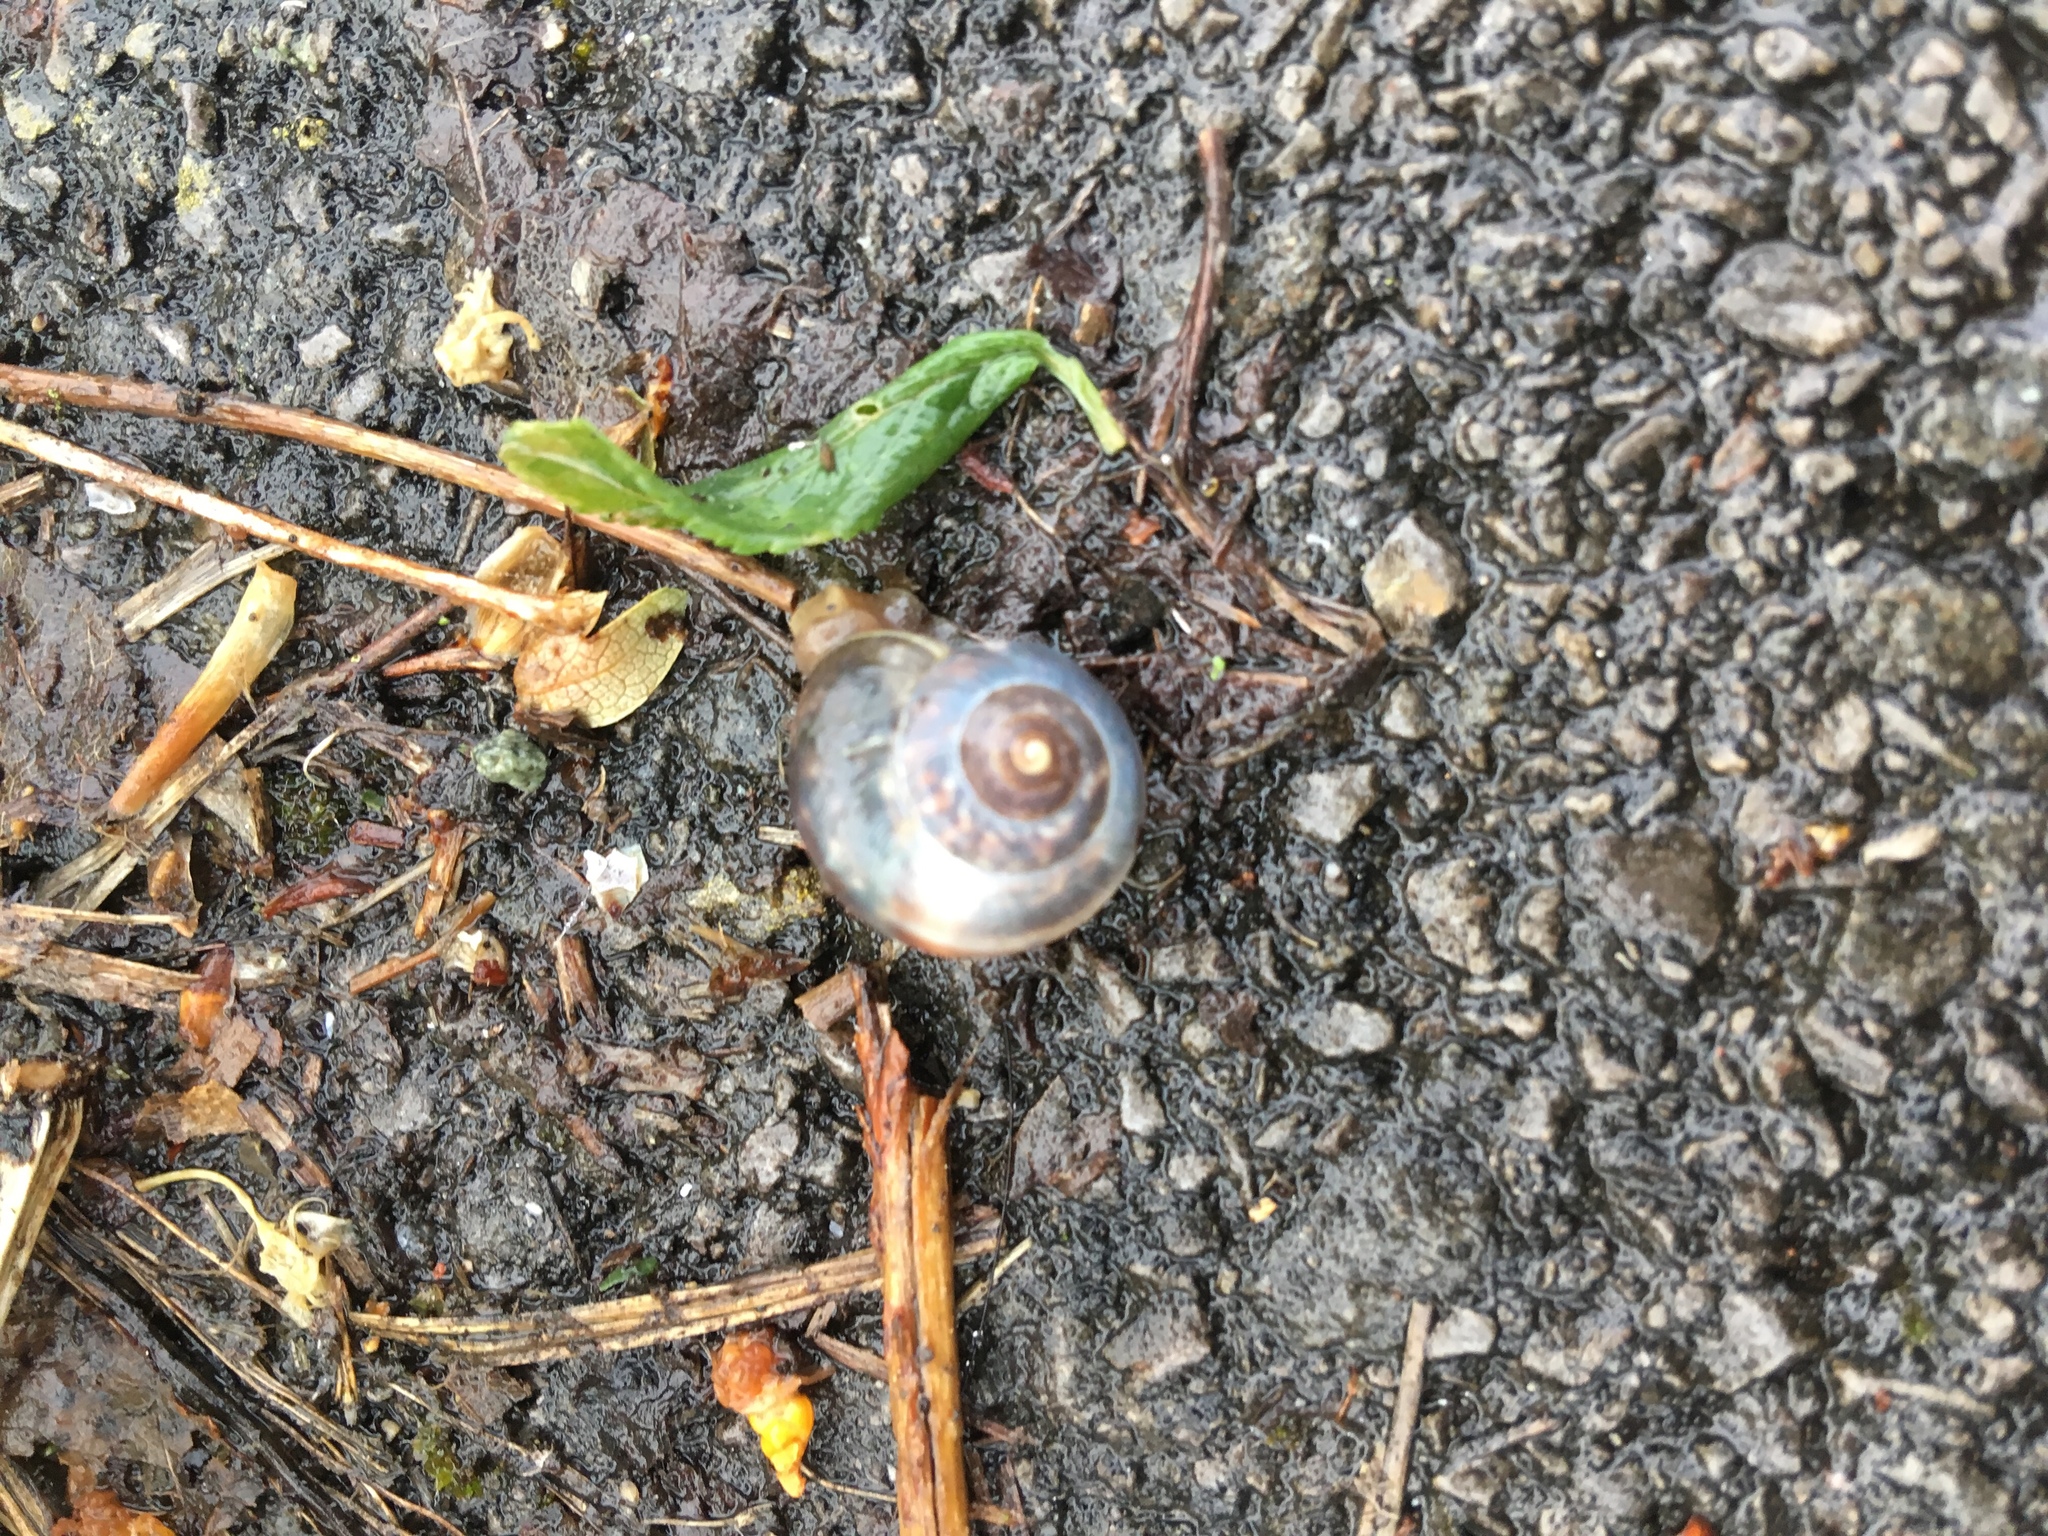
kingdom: Animalia
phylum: Mollusca
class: Gastropoda
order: Stylommatophora
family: Hygromiidae
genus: Monacha
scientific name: Monacha cantiana
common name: Kentish snail
